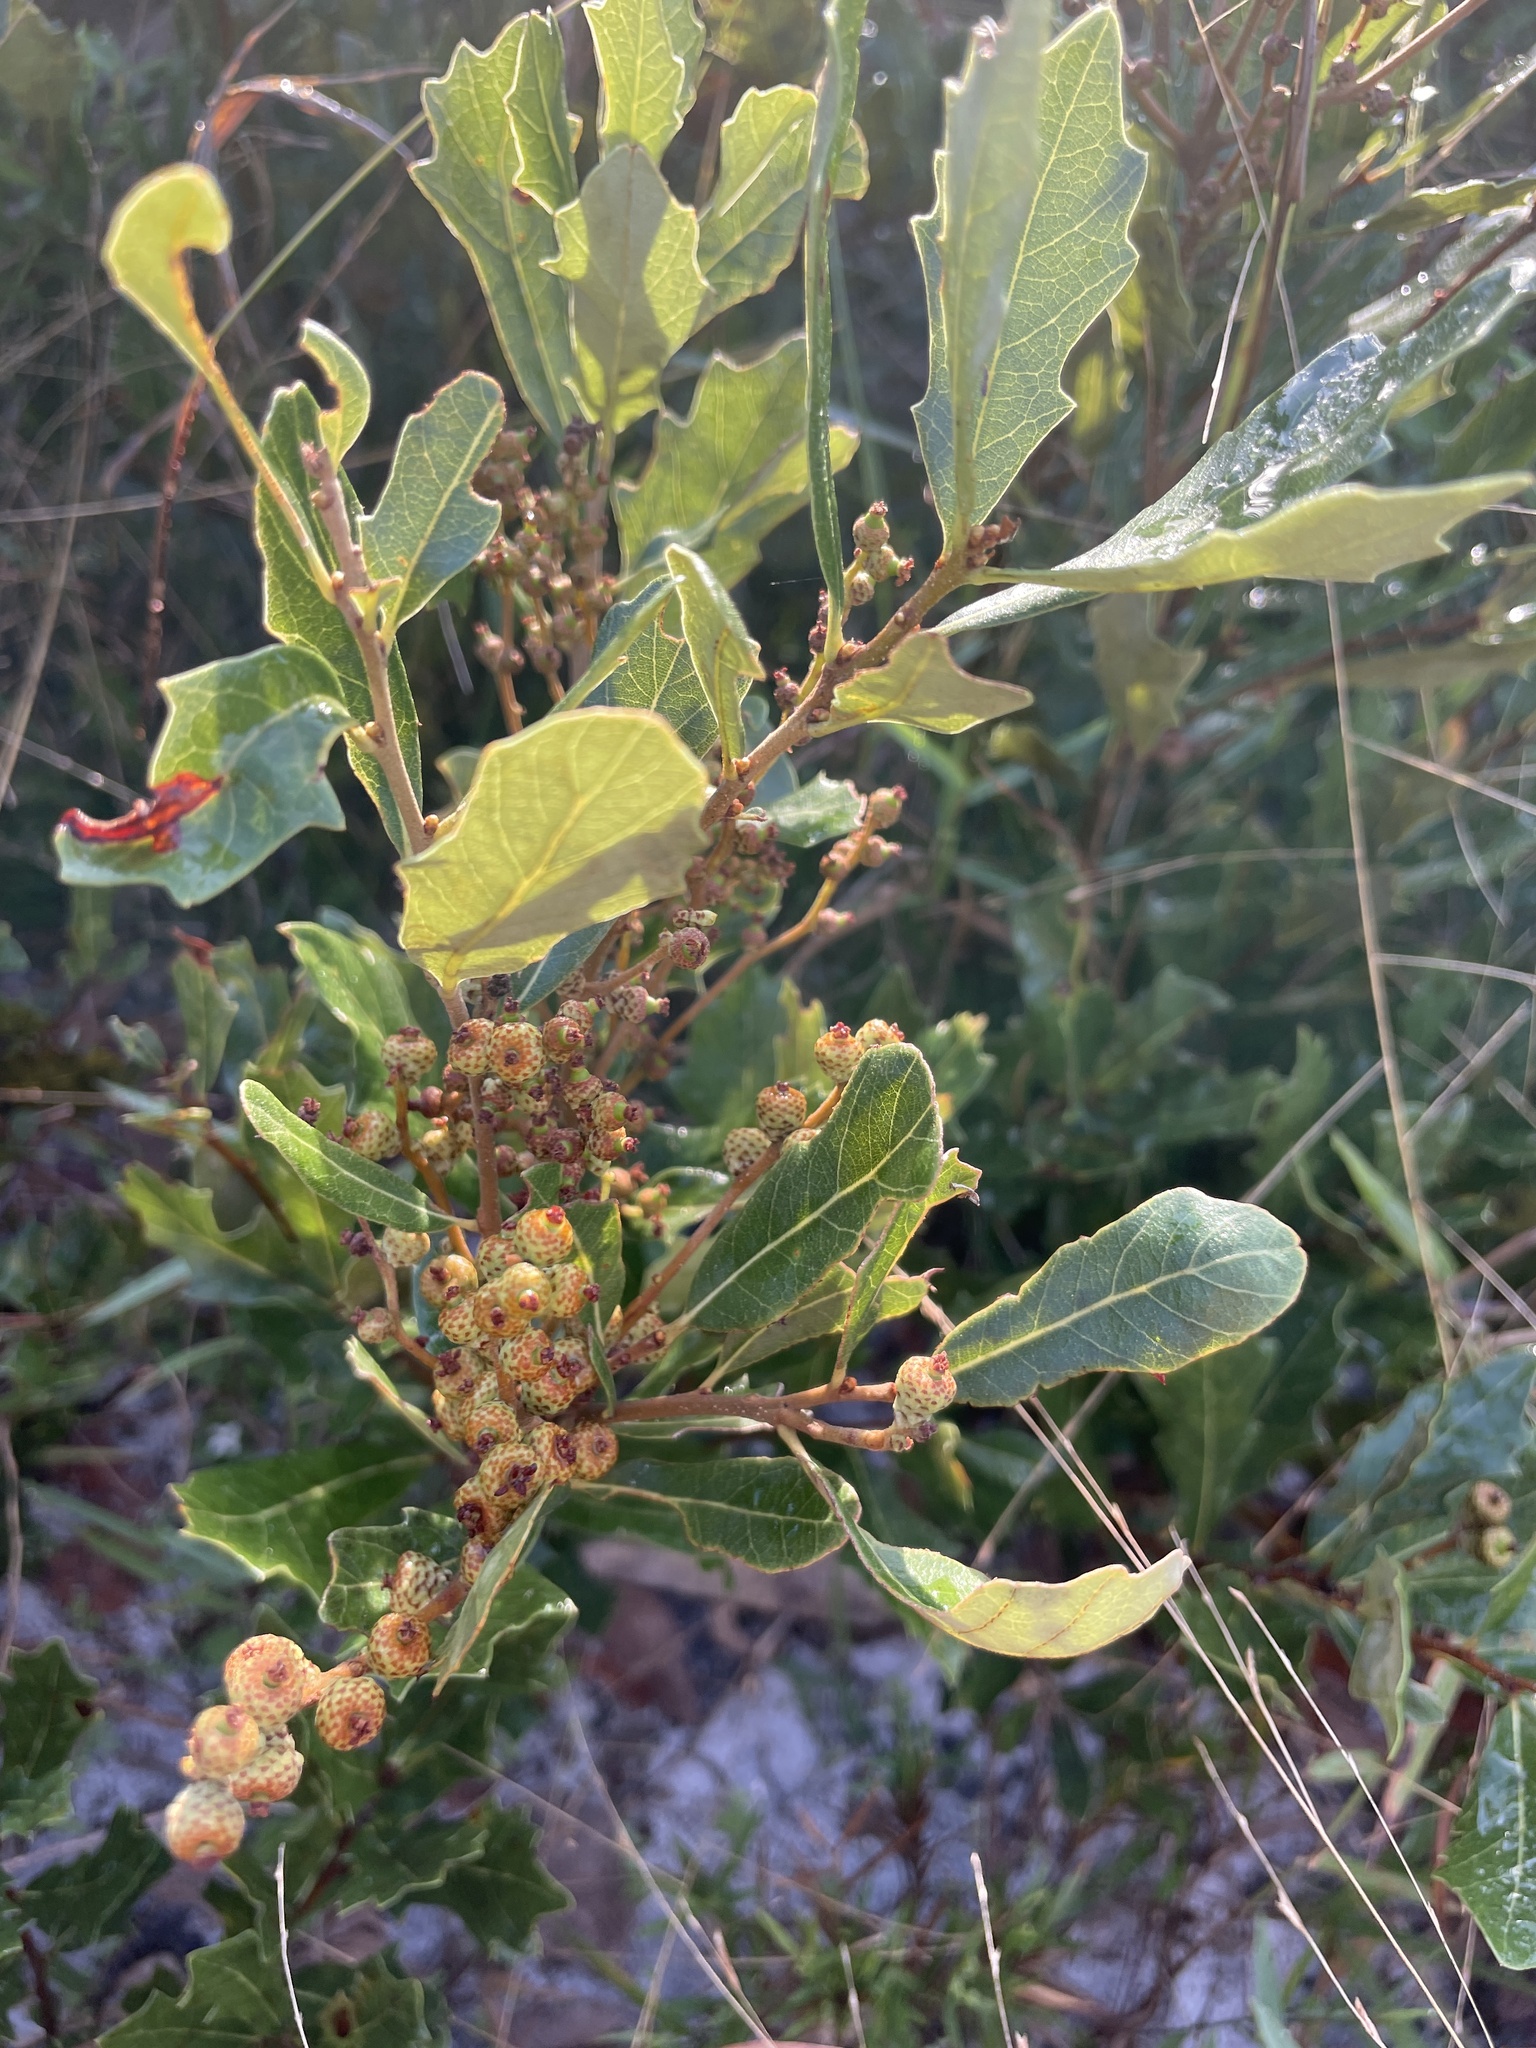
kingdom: Plantae
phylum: Tracheophyta
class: Magnoliopsida
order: Fagales
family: Fagaceae
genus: Quercus
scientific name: Quercus minima
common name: Dwarf live oak
